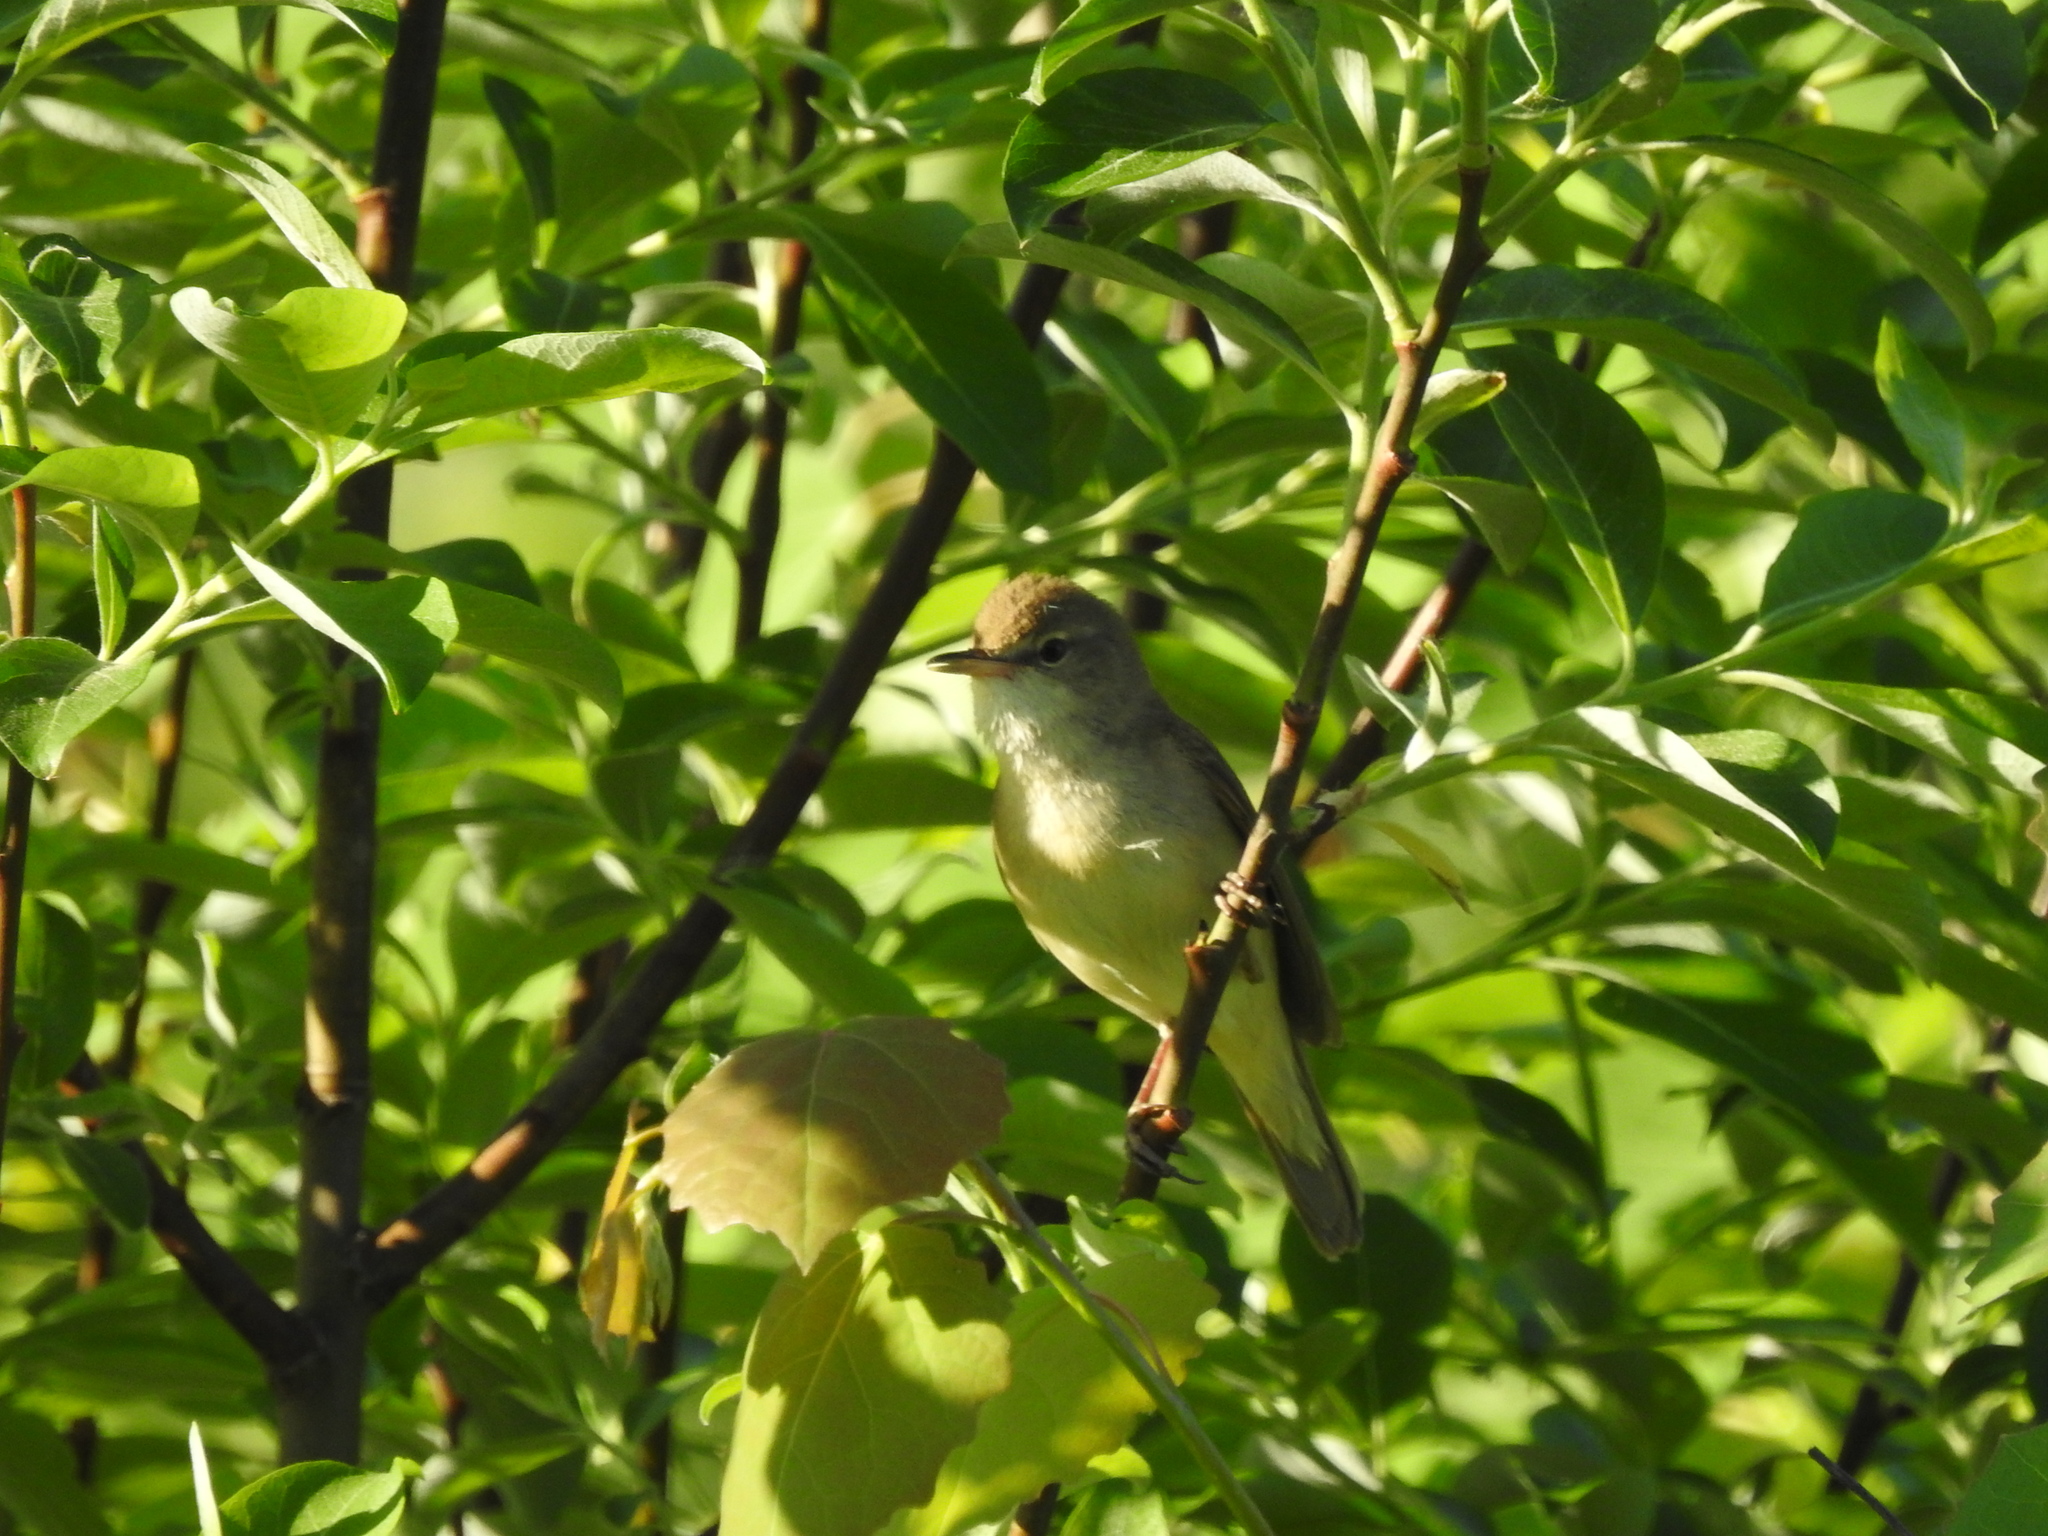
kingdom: Animalia
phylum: Chordata
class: Aves
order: Passeriformes
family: Acrocephalidae
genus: Acrocephalus
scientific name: Acrocephalus dumetorum
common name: Blyth's reed warbler
